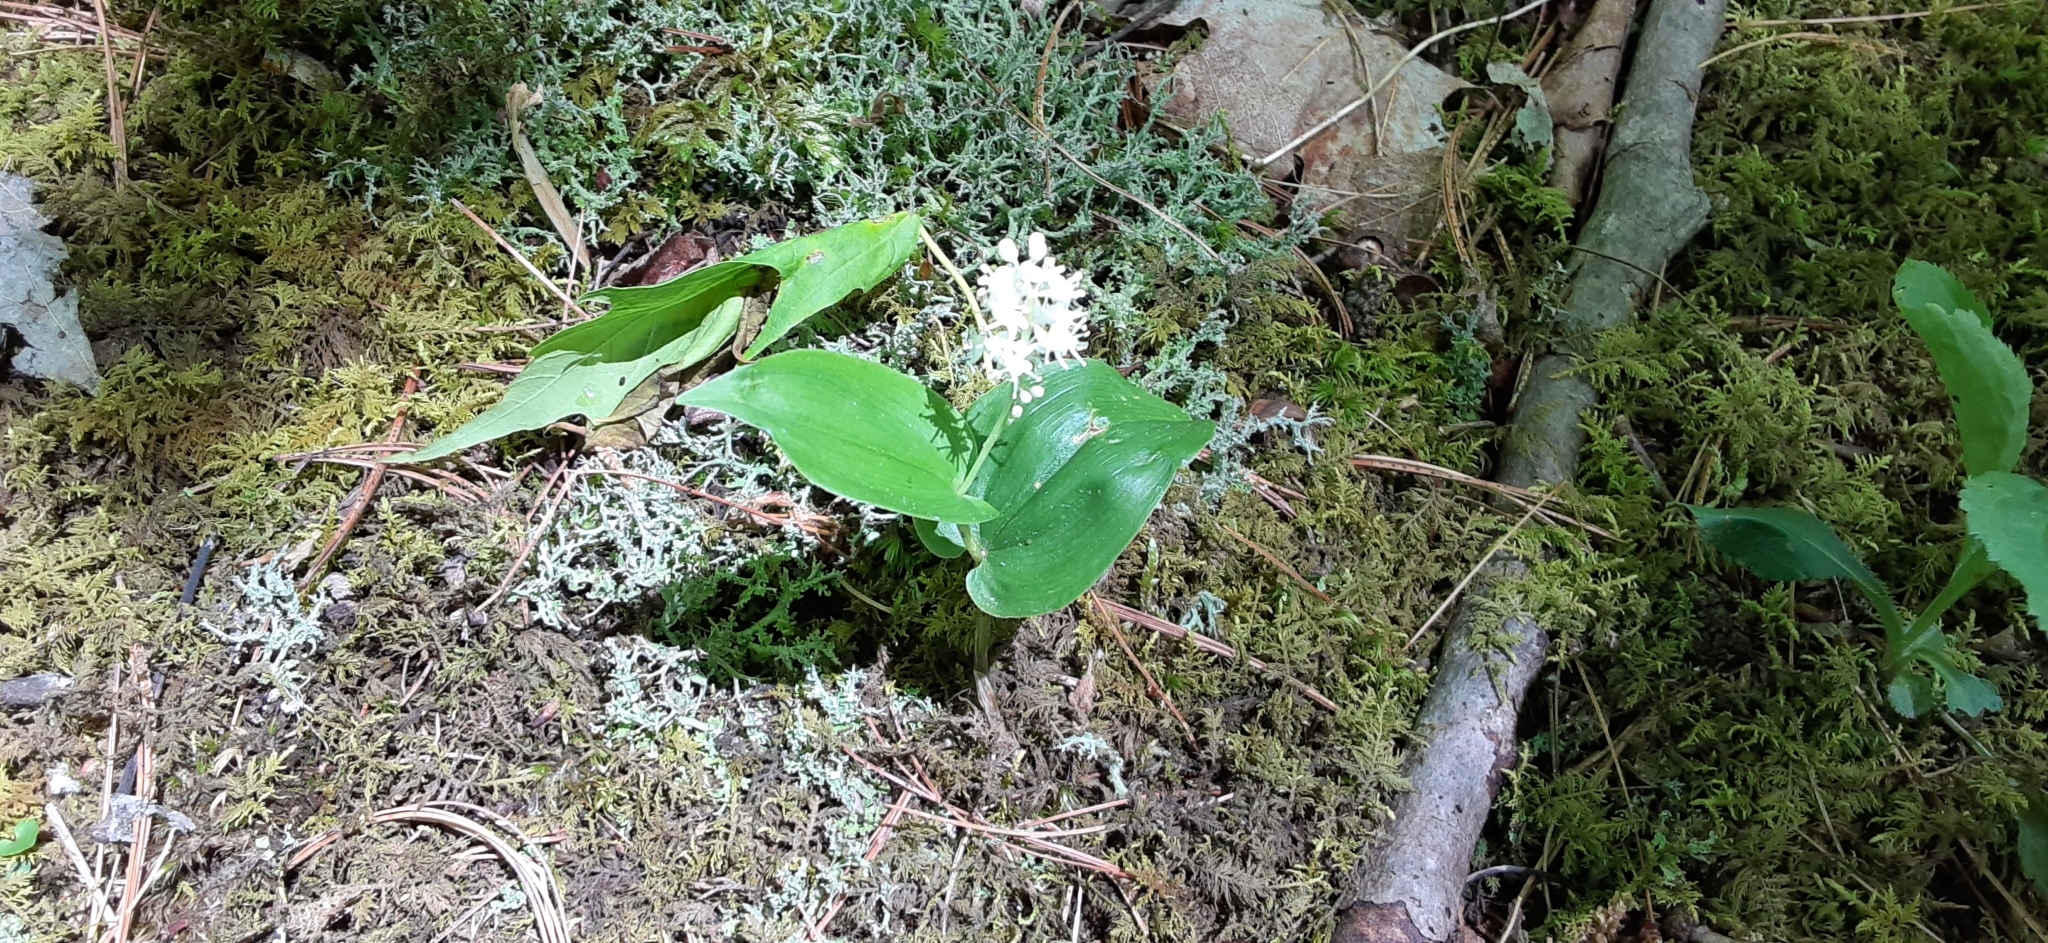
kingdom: Plantae
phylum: Tracheophyta
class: Liliopsida
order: Asparagales
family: Asparagaceae
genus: Maianthemum
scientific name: Maianthemum canadense
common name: False lily-of-the-valley
